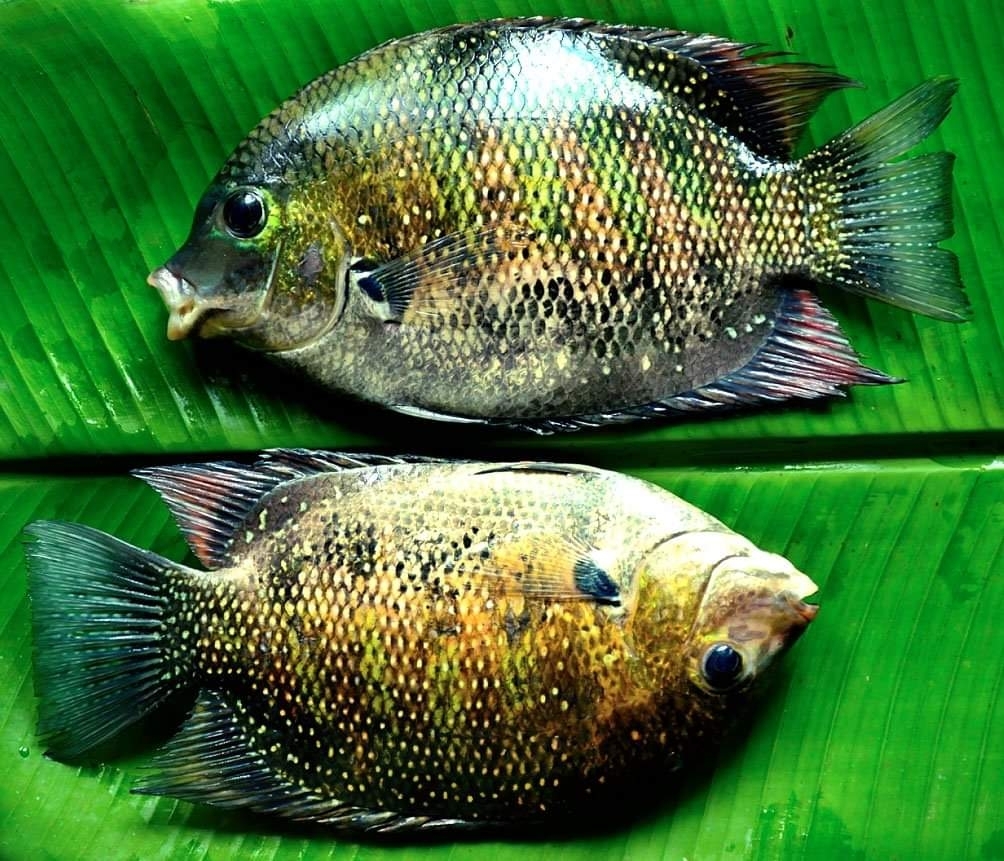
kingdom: Animalia
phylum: Chordata
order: Perciformes
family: Cichlidae
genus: Etroplus
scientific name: Etroplus suratensis
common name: Green chromide
